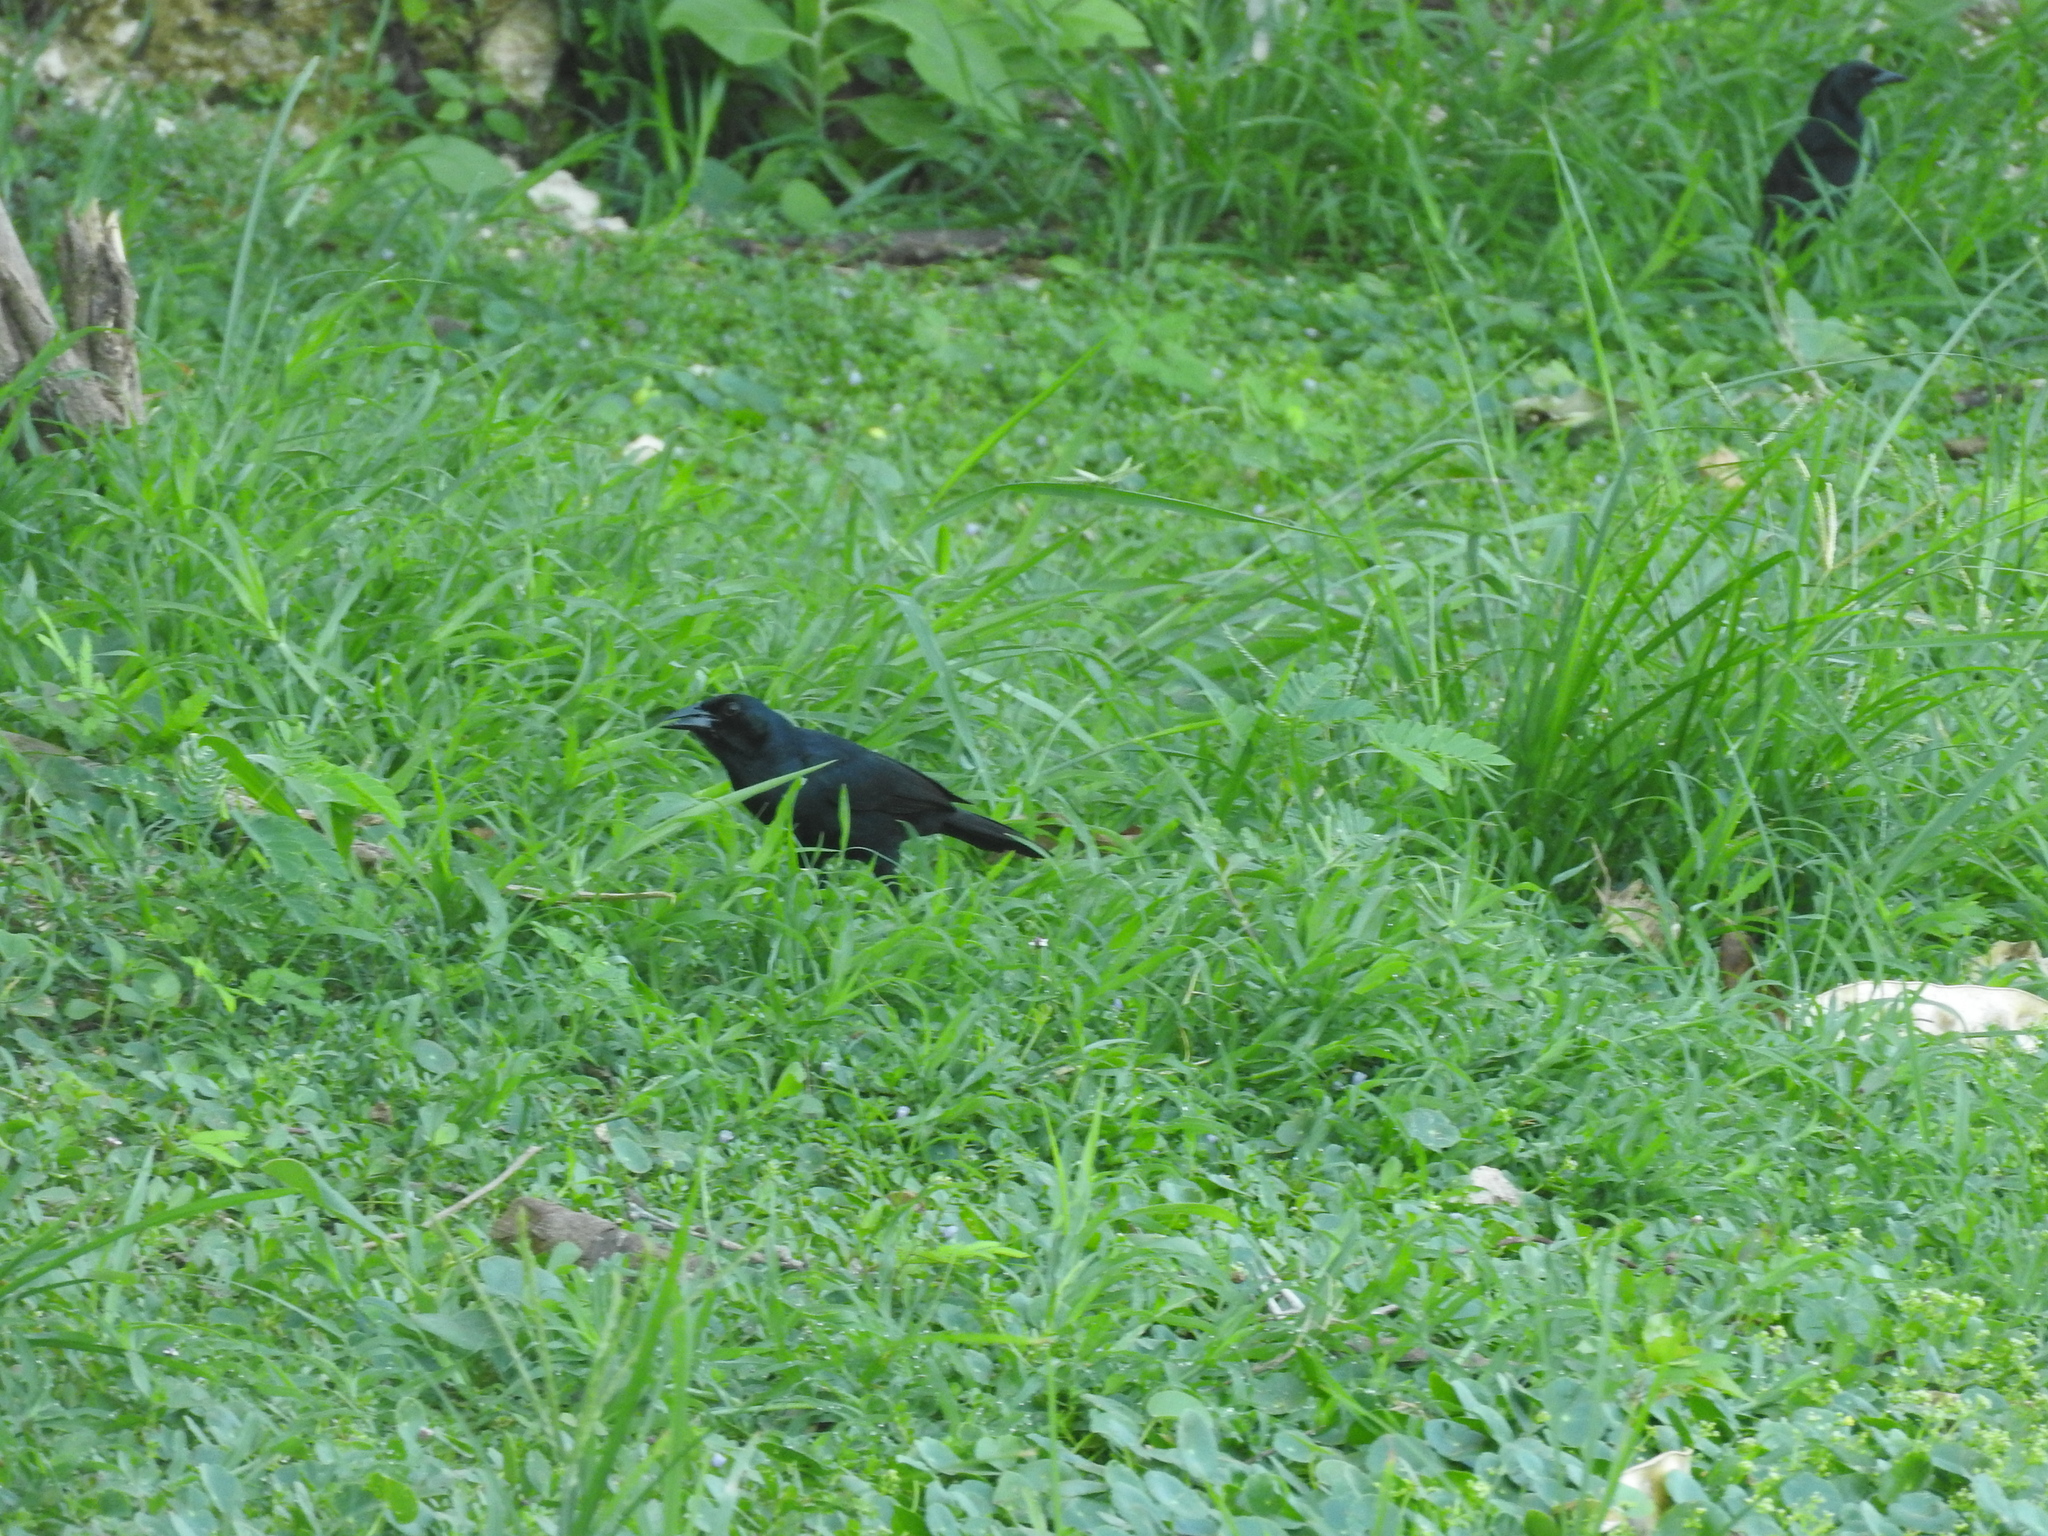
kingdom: Animalia
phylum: Chordata
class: Aves
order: Passeriformes
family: Icteridae
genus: Dives
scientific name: Dives dives
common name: Melodious blackbird
